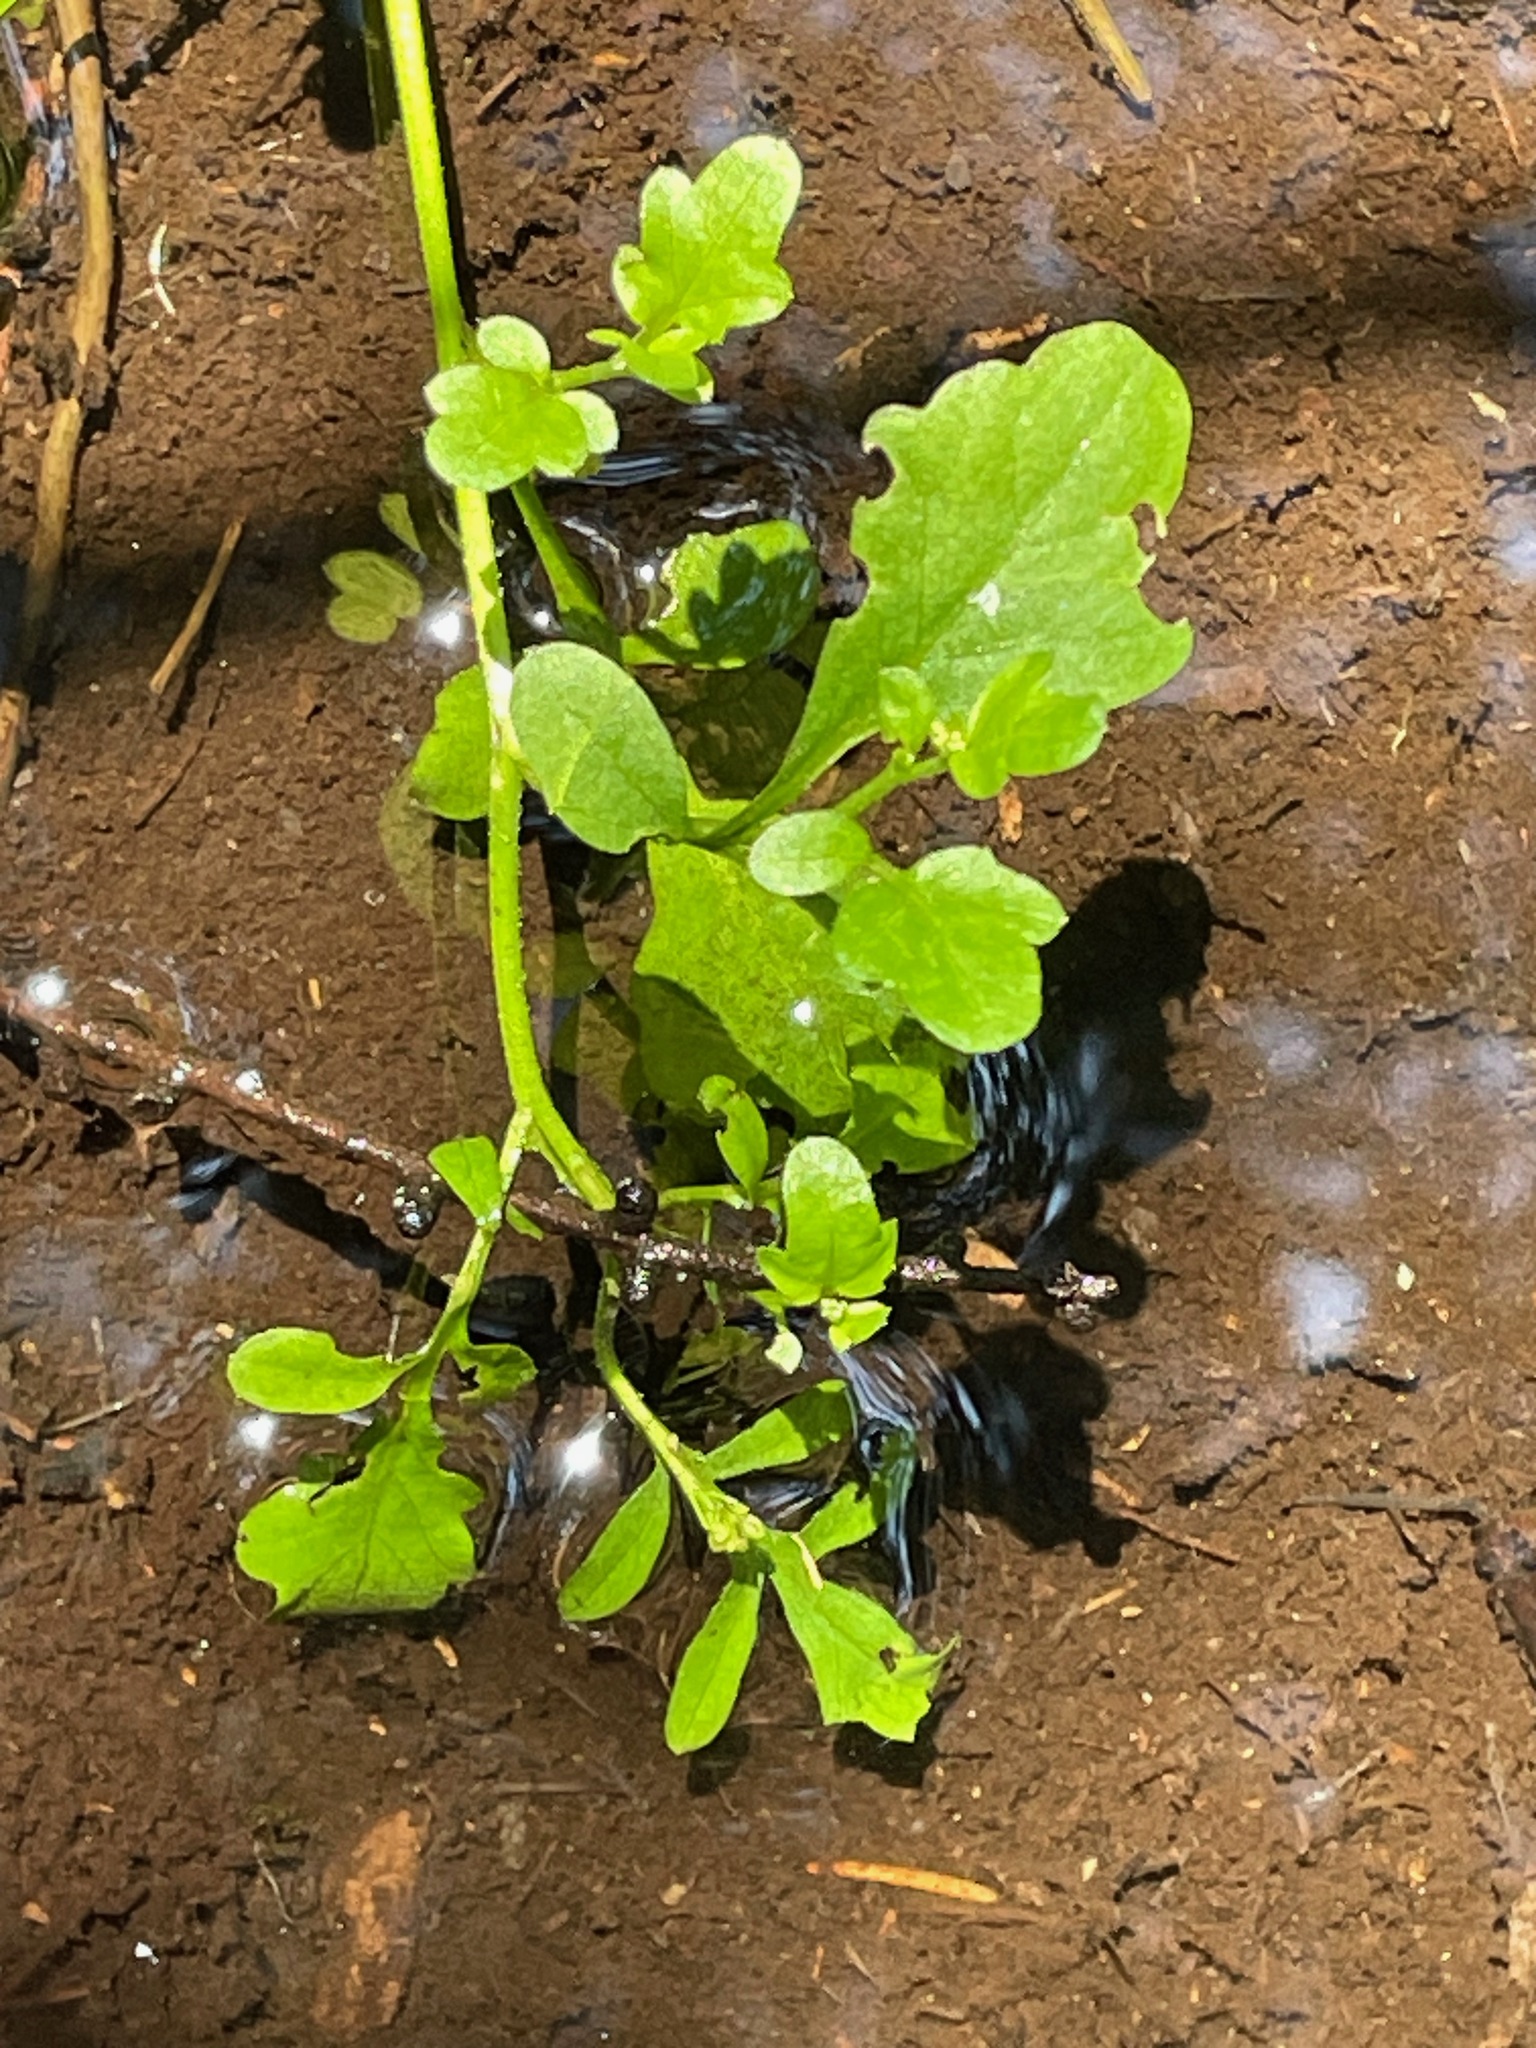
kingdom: Plantae
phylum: Tracheophyta
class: Magnoliopsida
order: Brassicales
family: Brassicaceae
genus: Cardamine
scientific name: Cardamine pensylvanica
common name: Pennsylvania bittercress
